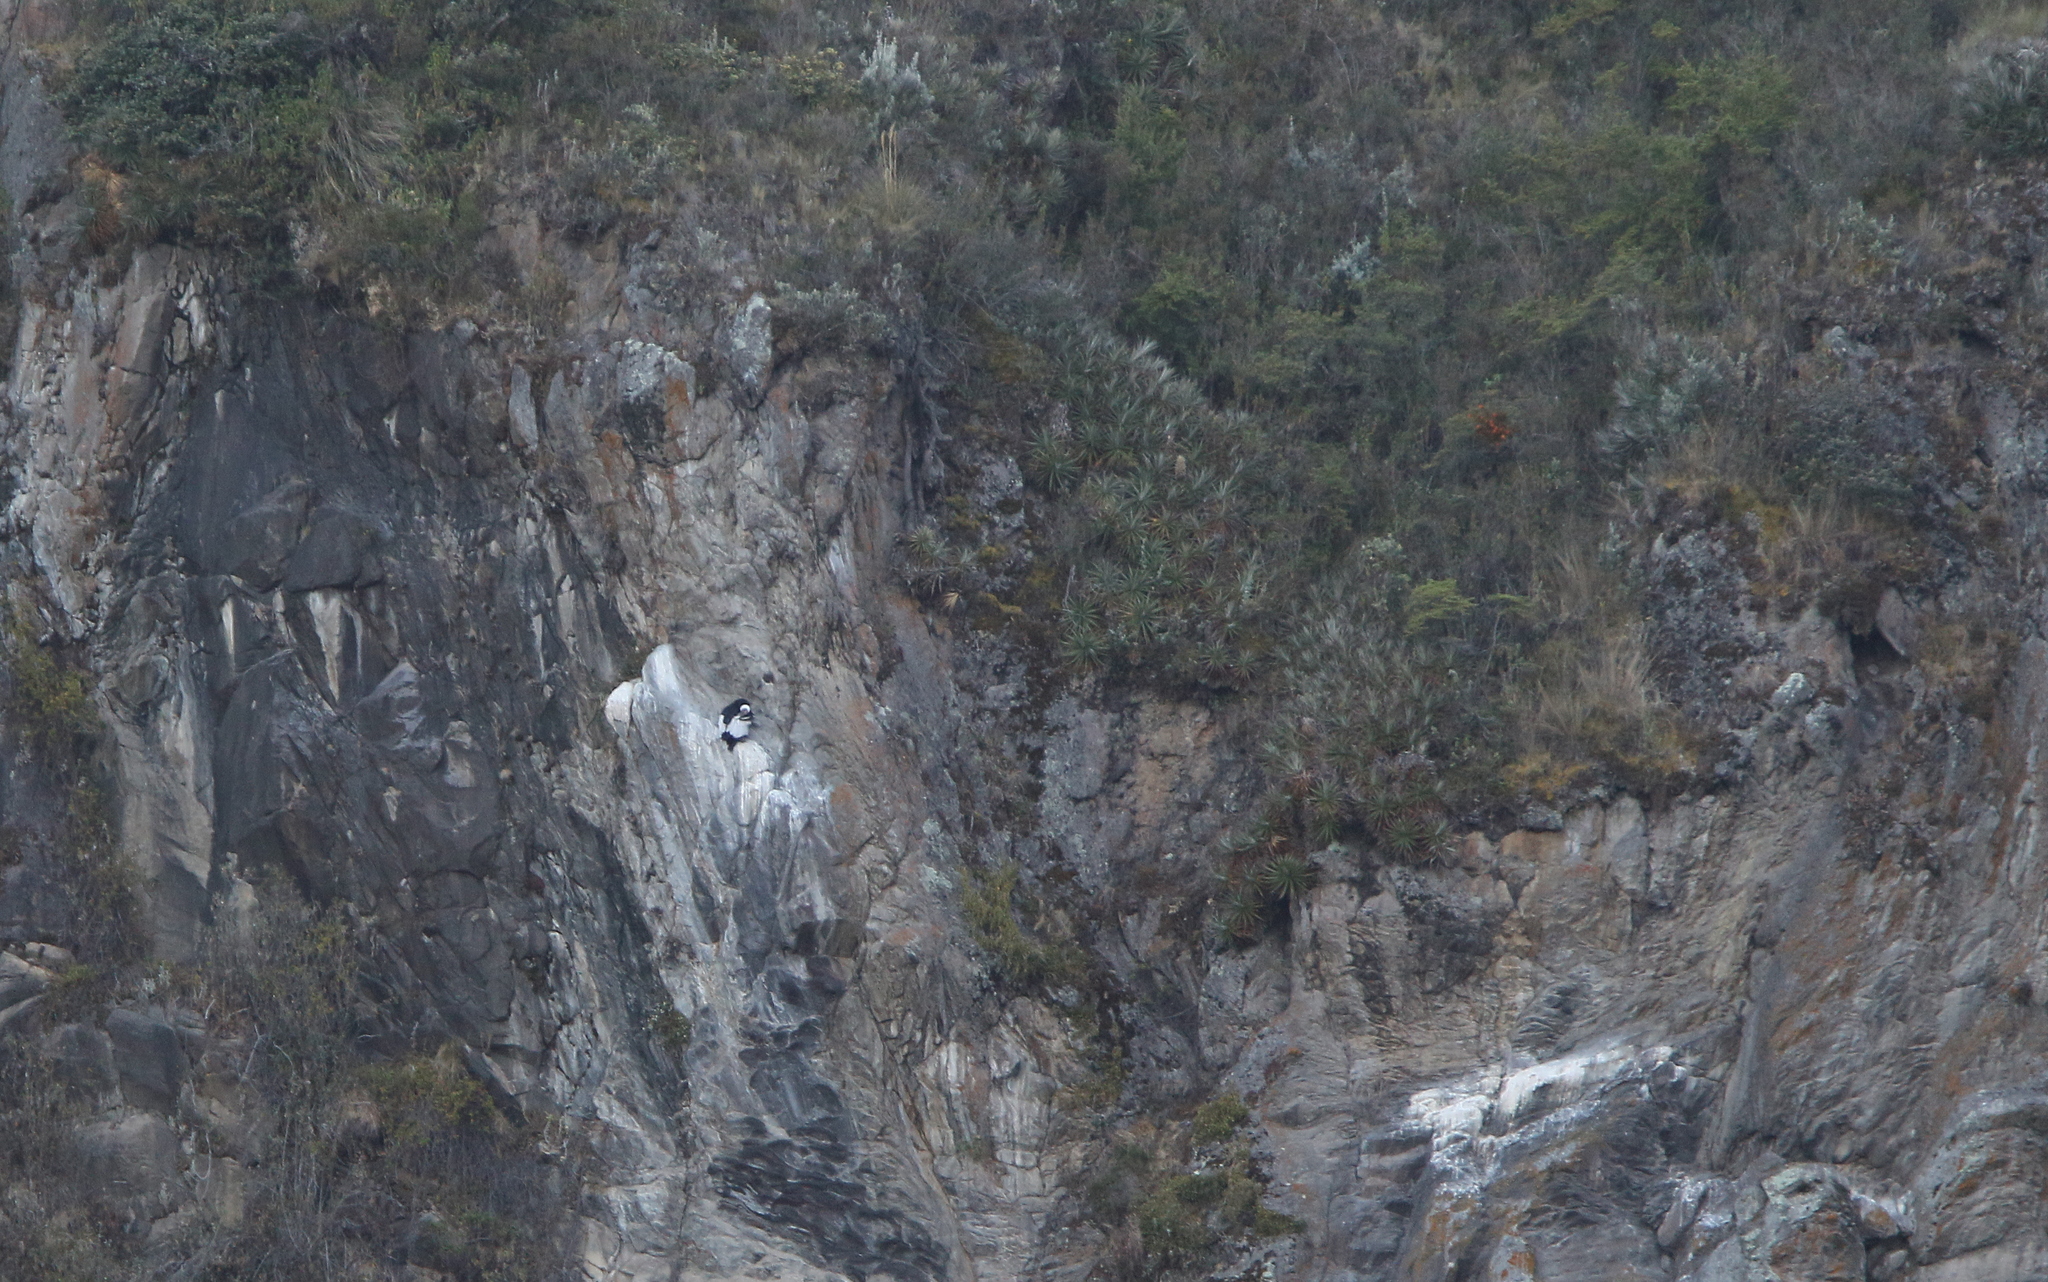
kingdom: Animalia
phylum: Chordata
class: Aves
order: Accipitriformes
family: Cathartidae
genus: Vultur
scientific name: Vultur gryphus
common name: Andean condor
